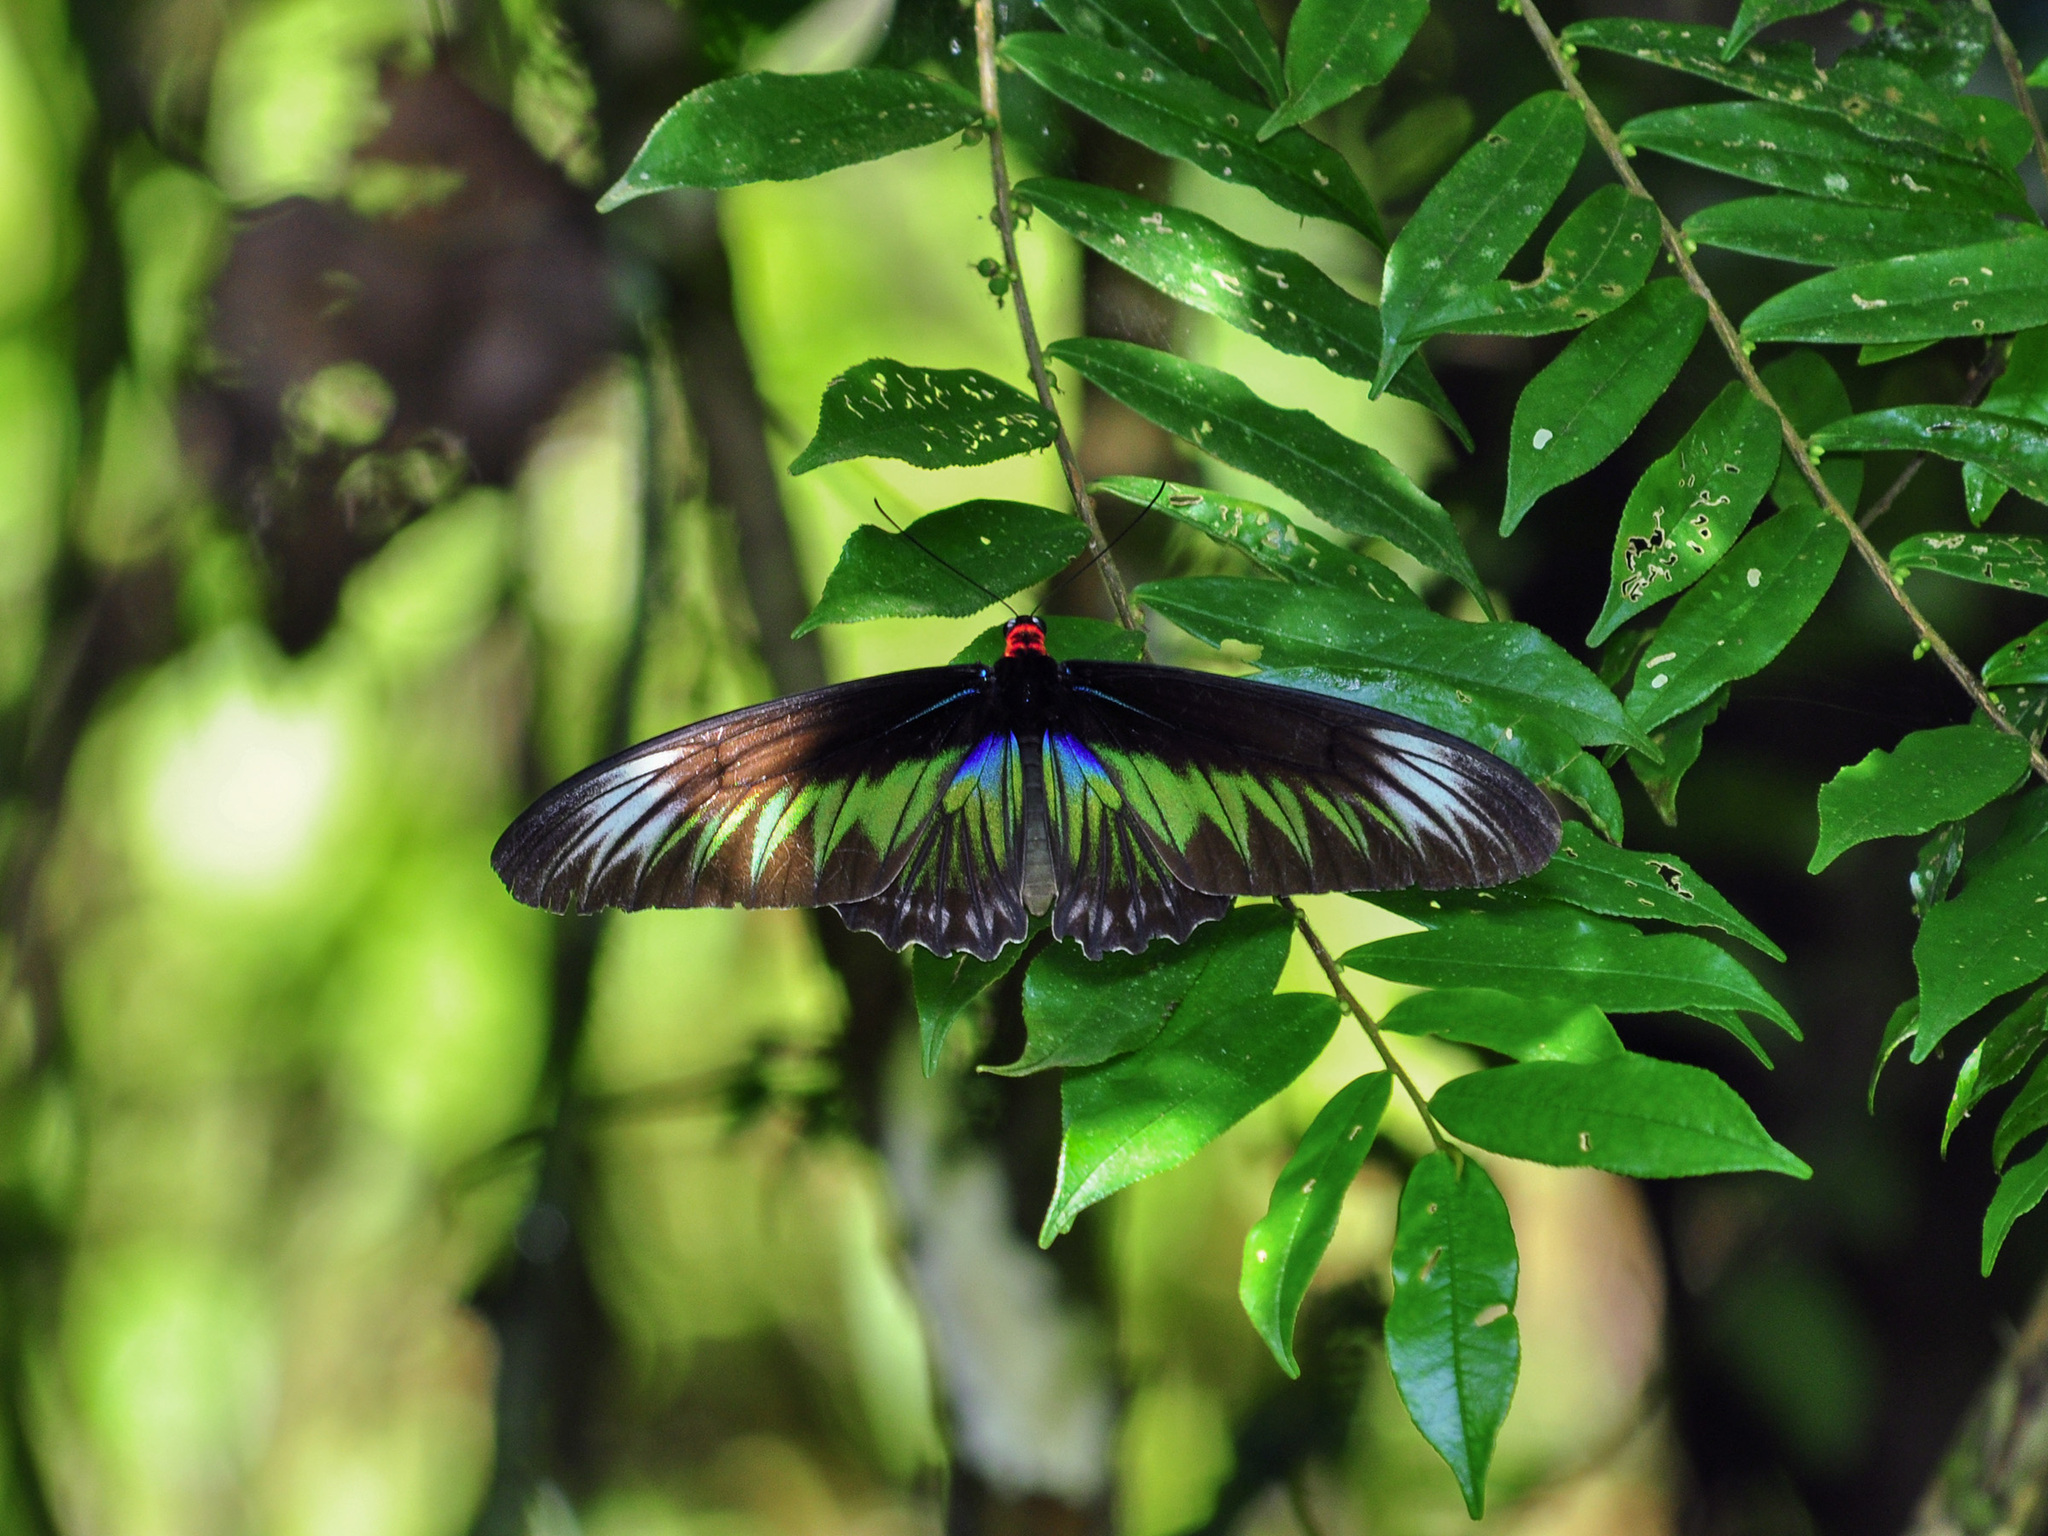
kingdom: Animalia
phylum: Arthropoda
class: Insecta
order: Lepidoptera
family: Papilionidae
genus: Trogonoptera
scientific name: Trogonoptera brookiana
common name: Raja brooke's birdwing
